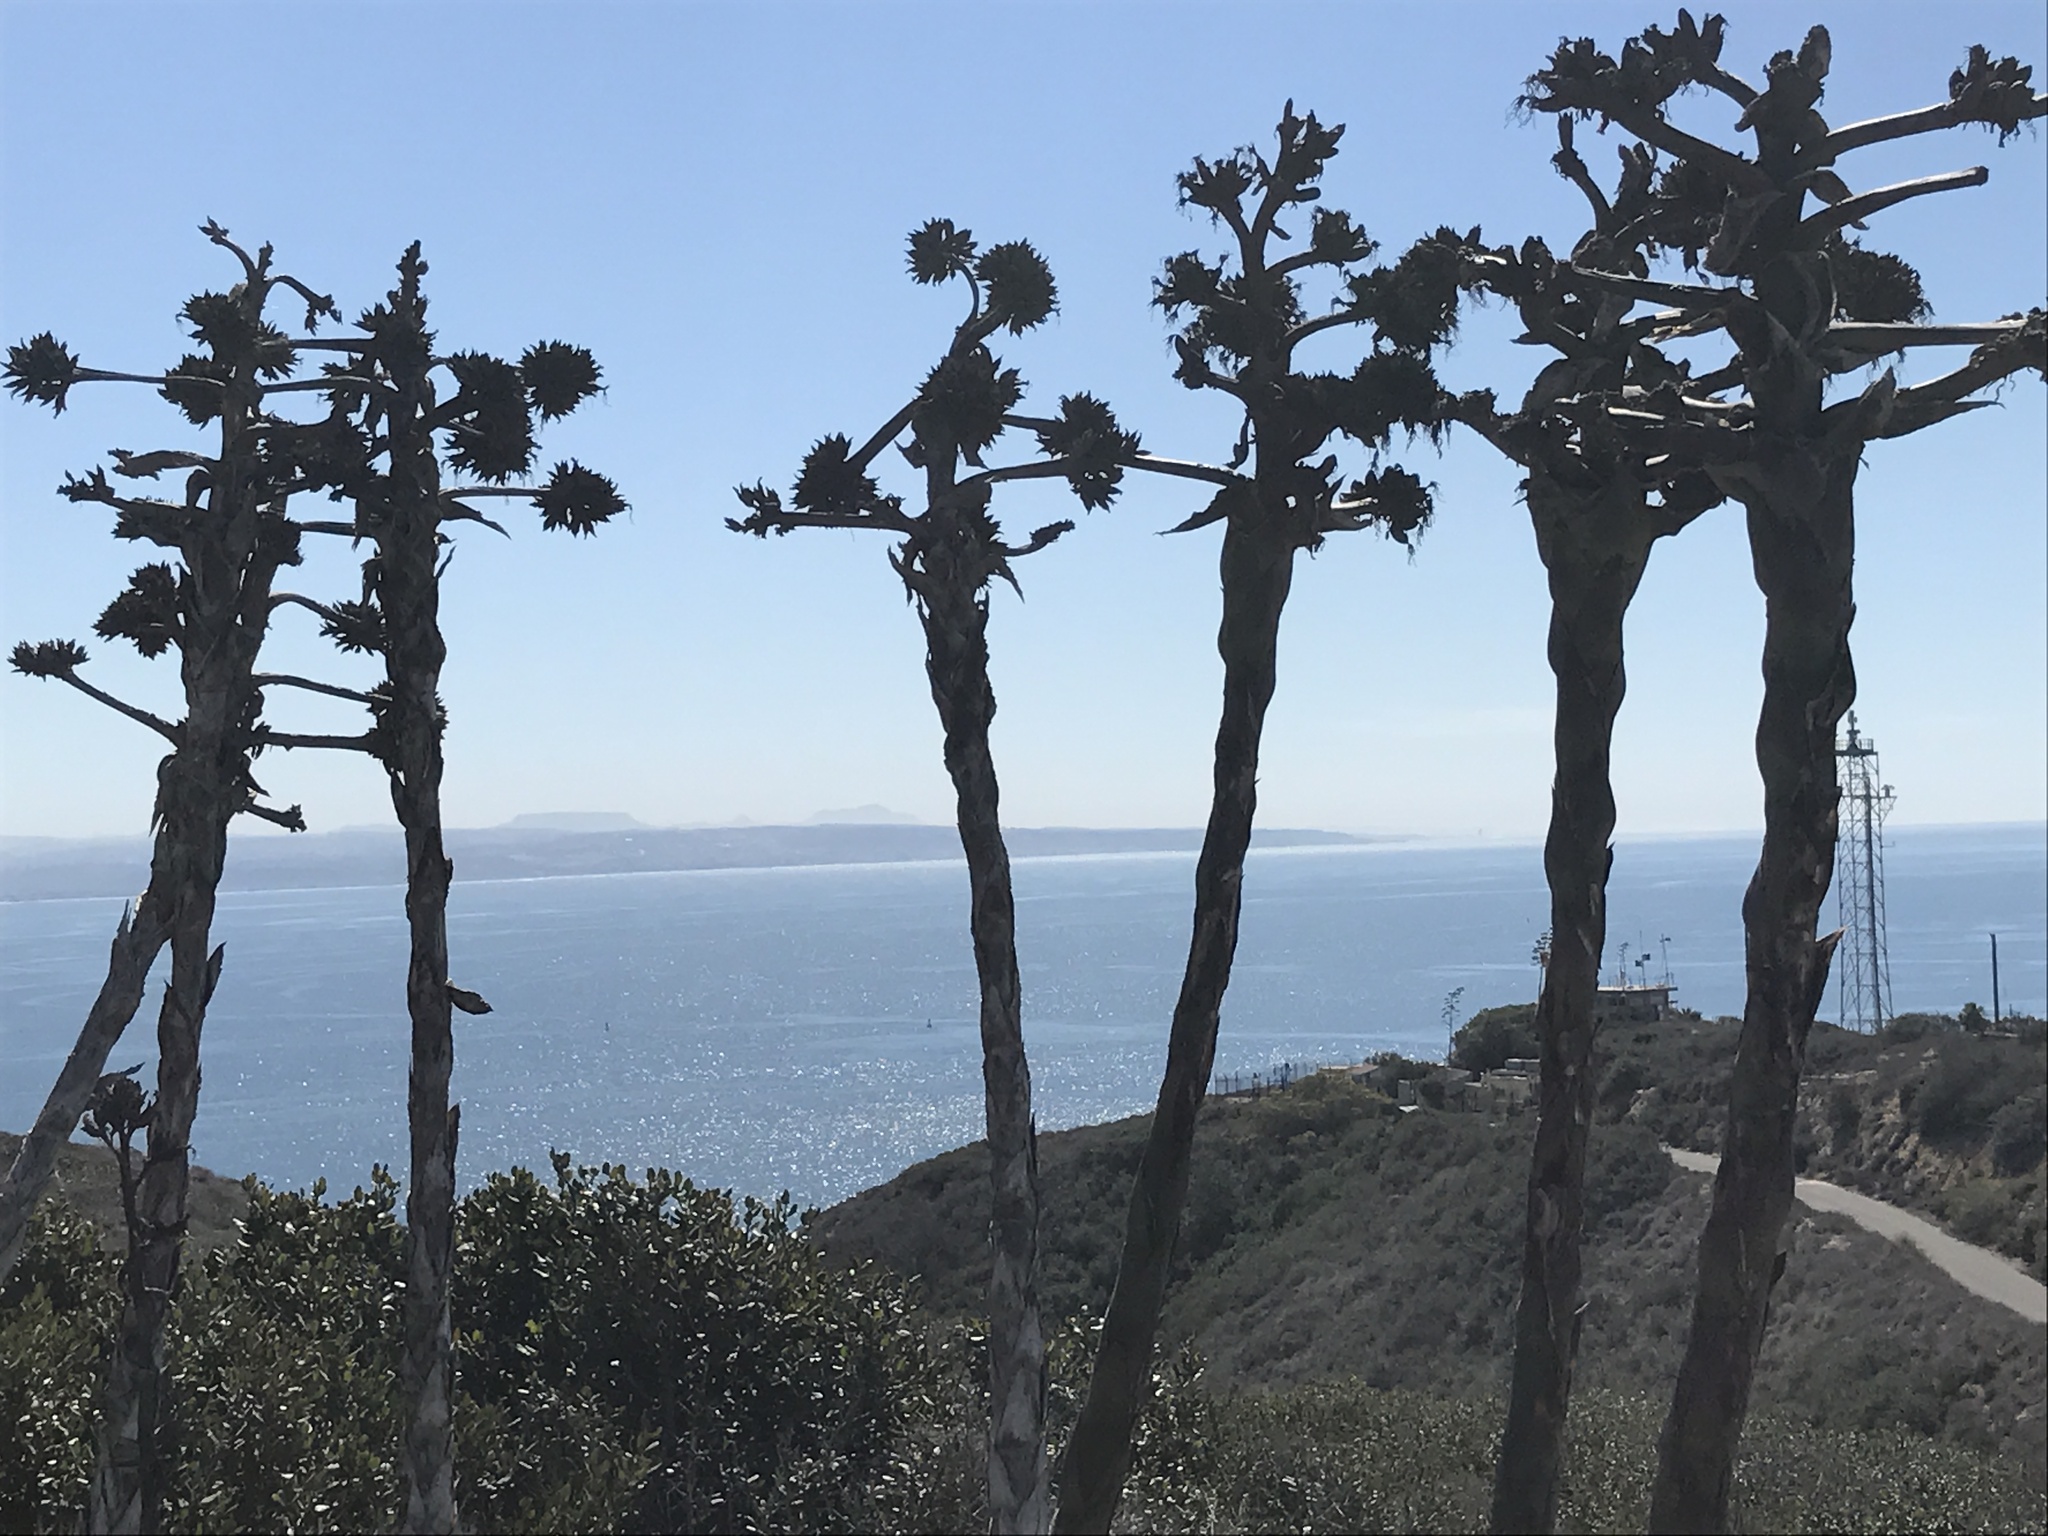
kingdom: Plantae
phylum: Tracheophyta
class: Liliopsida
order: Asparagales
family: Asparagaceae
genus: Agave
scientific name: Agave shawii
